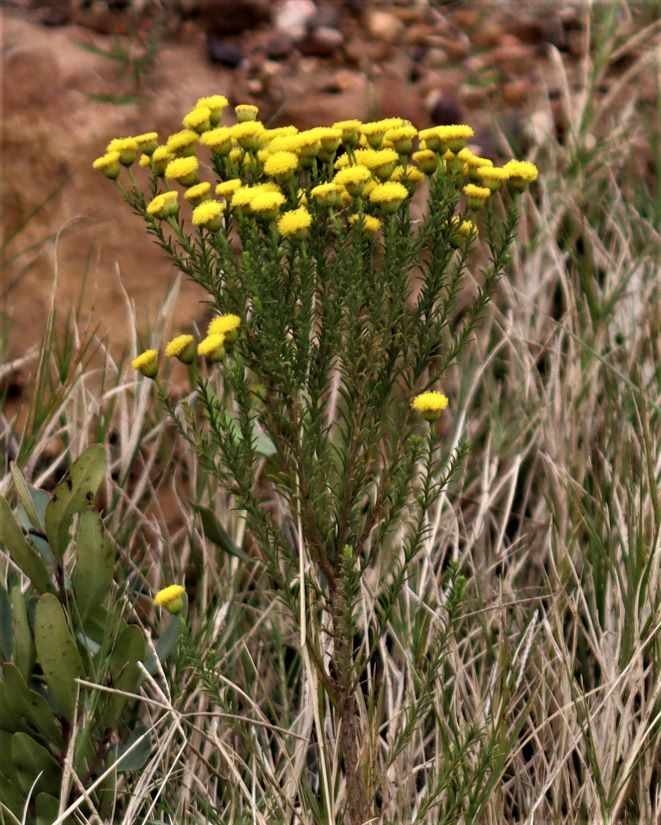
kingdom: Plantae
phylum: Tracheophyta
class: Magnoliopsida
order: Asterales
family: Asteraceae
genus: Chrysocoma
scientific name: Chrysocoma ciliata
